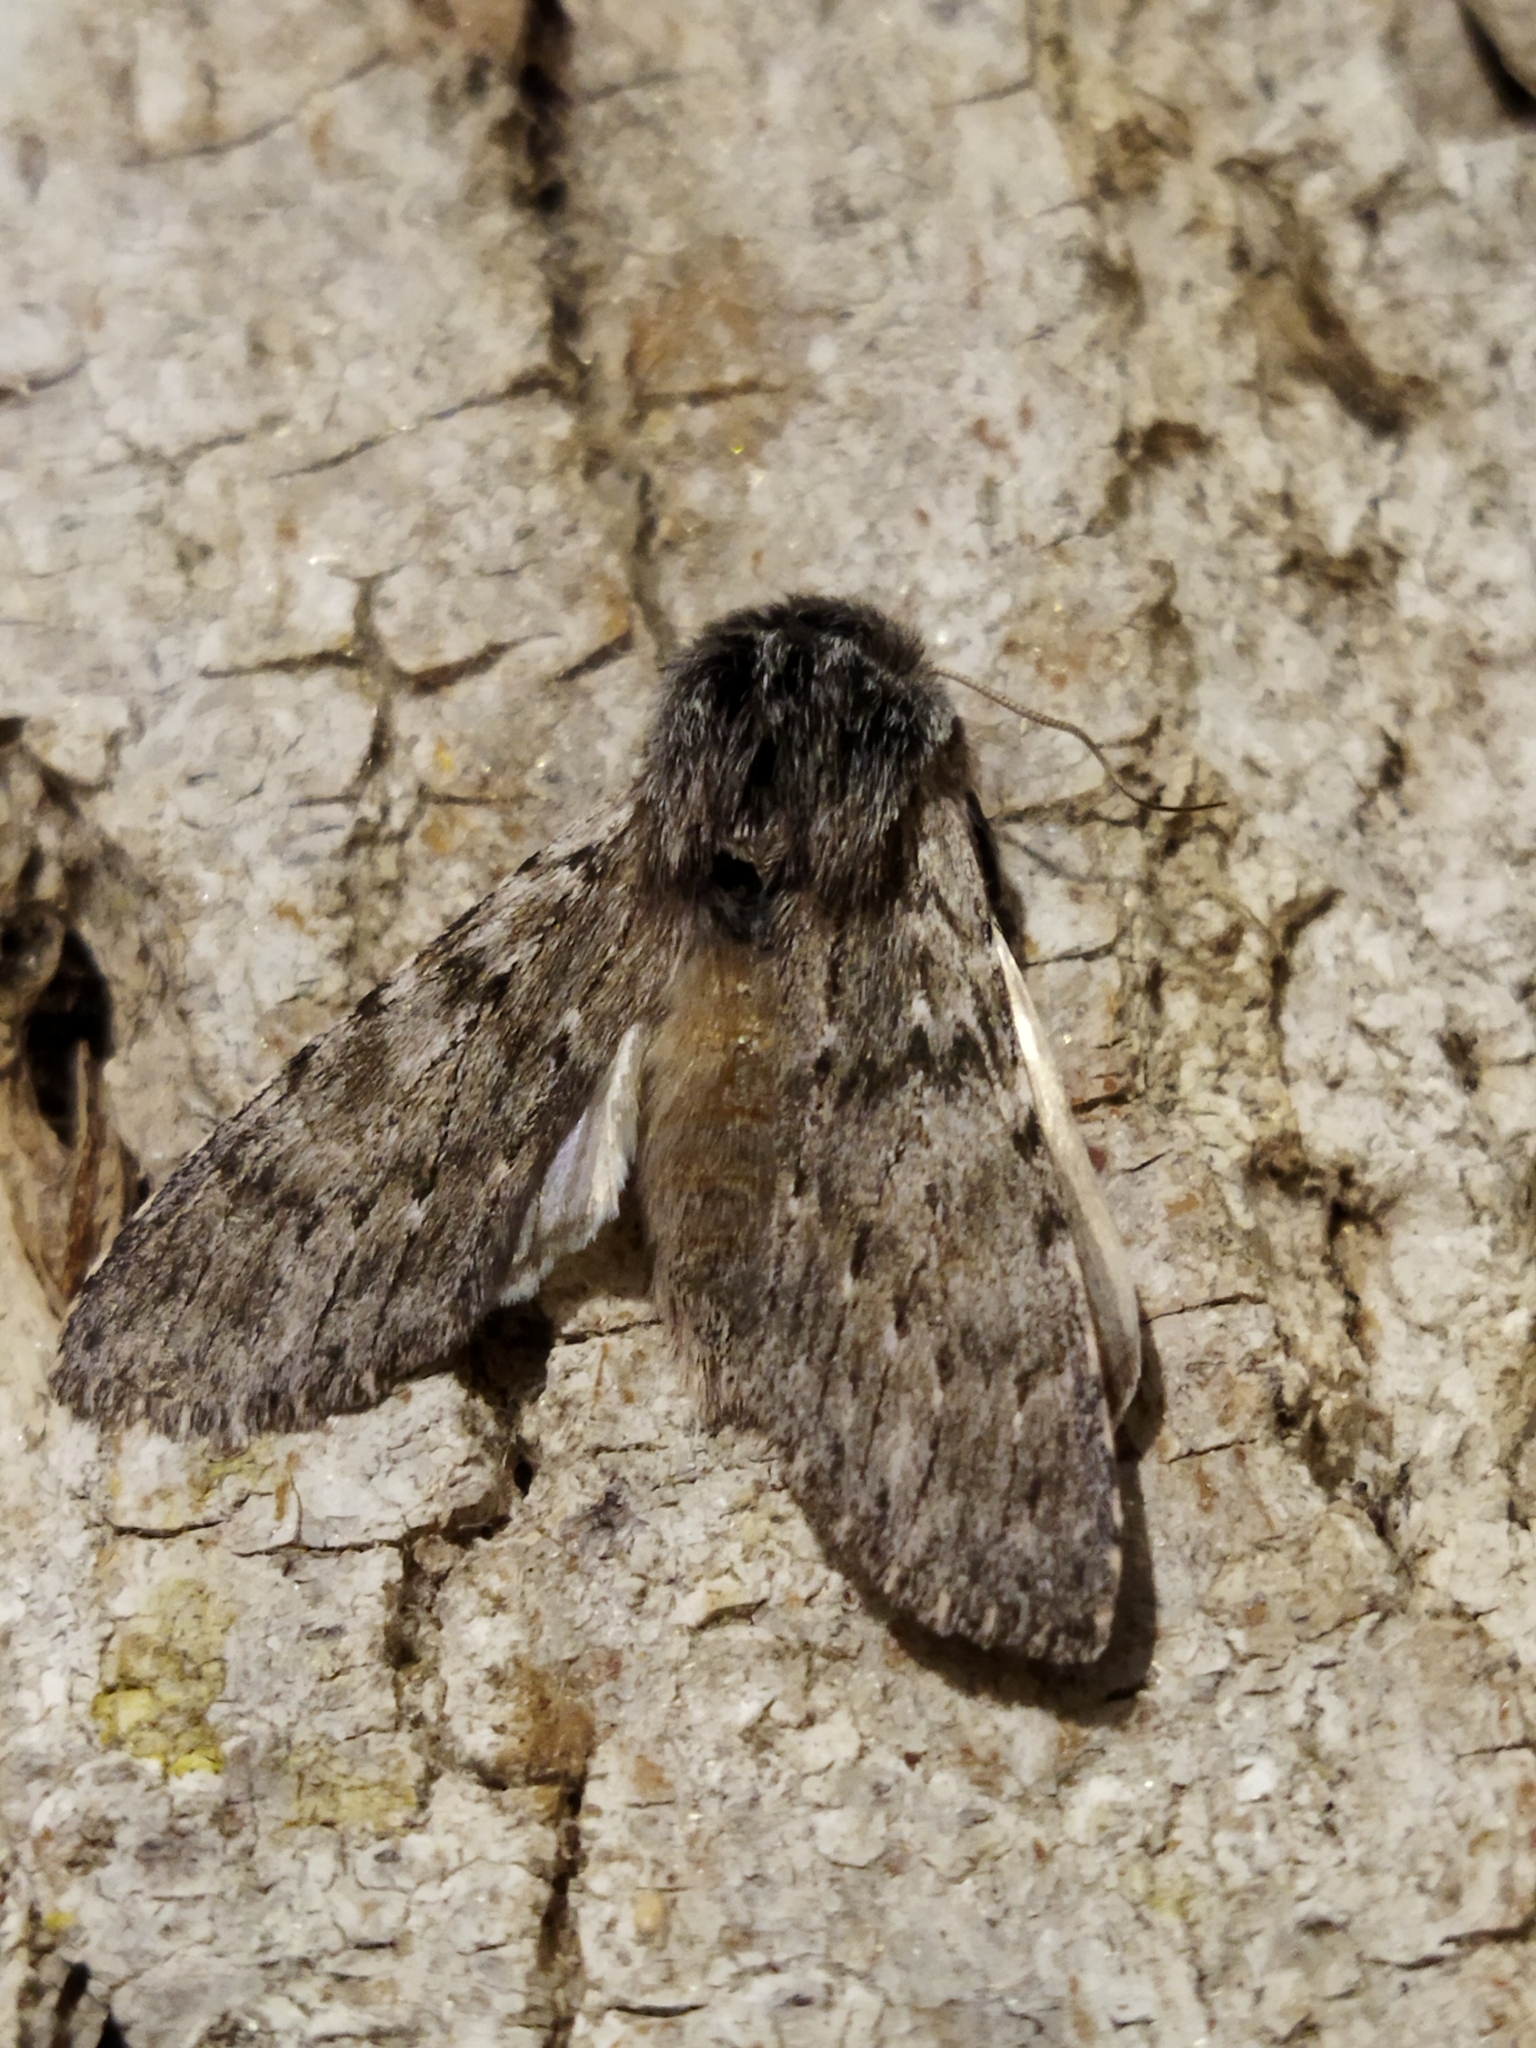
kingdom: Animalia
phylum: Arthropoda
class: Insecta
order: Lepidoptera
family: Notodontidae
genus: Dicranura
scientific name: Dicranura ulmi
